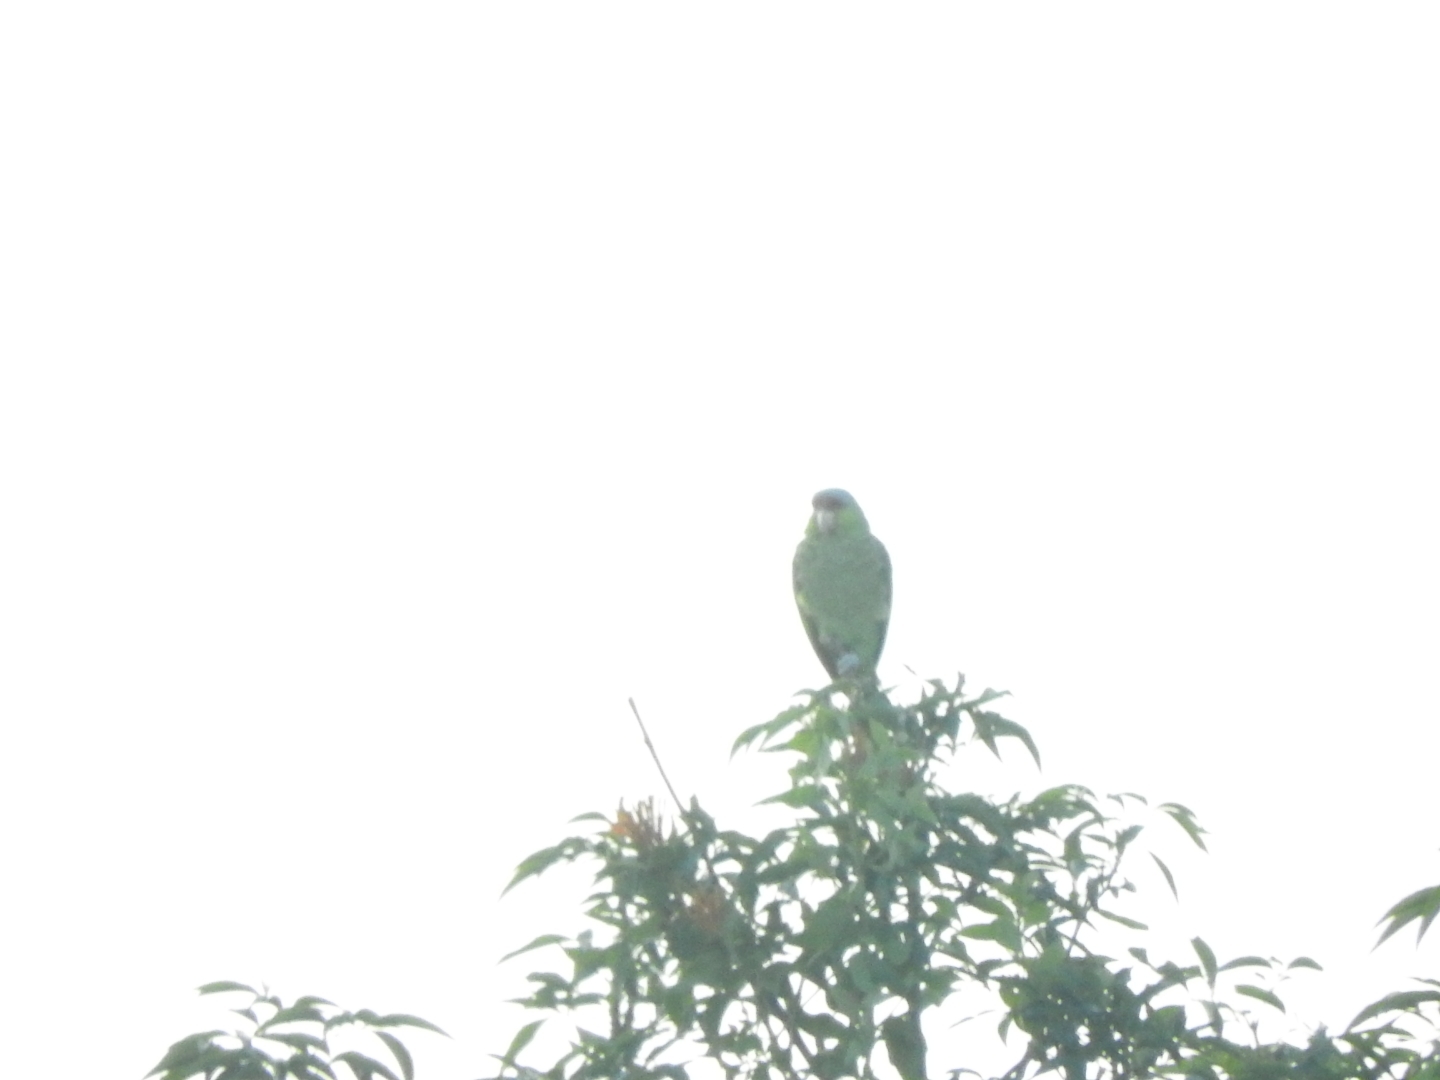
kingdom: Animalia
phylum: Chordata
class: Aves
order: Psittaciformes
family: Psittacidae
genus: Amazona
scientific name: Amazona finschi
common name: Lilac-crowned amazon
